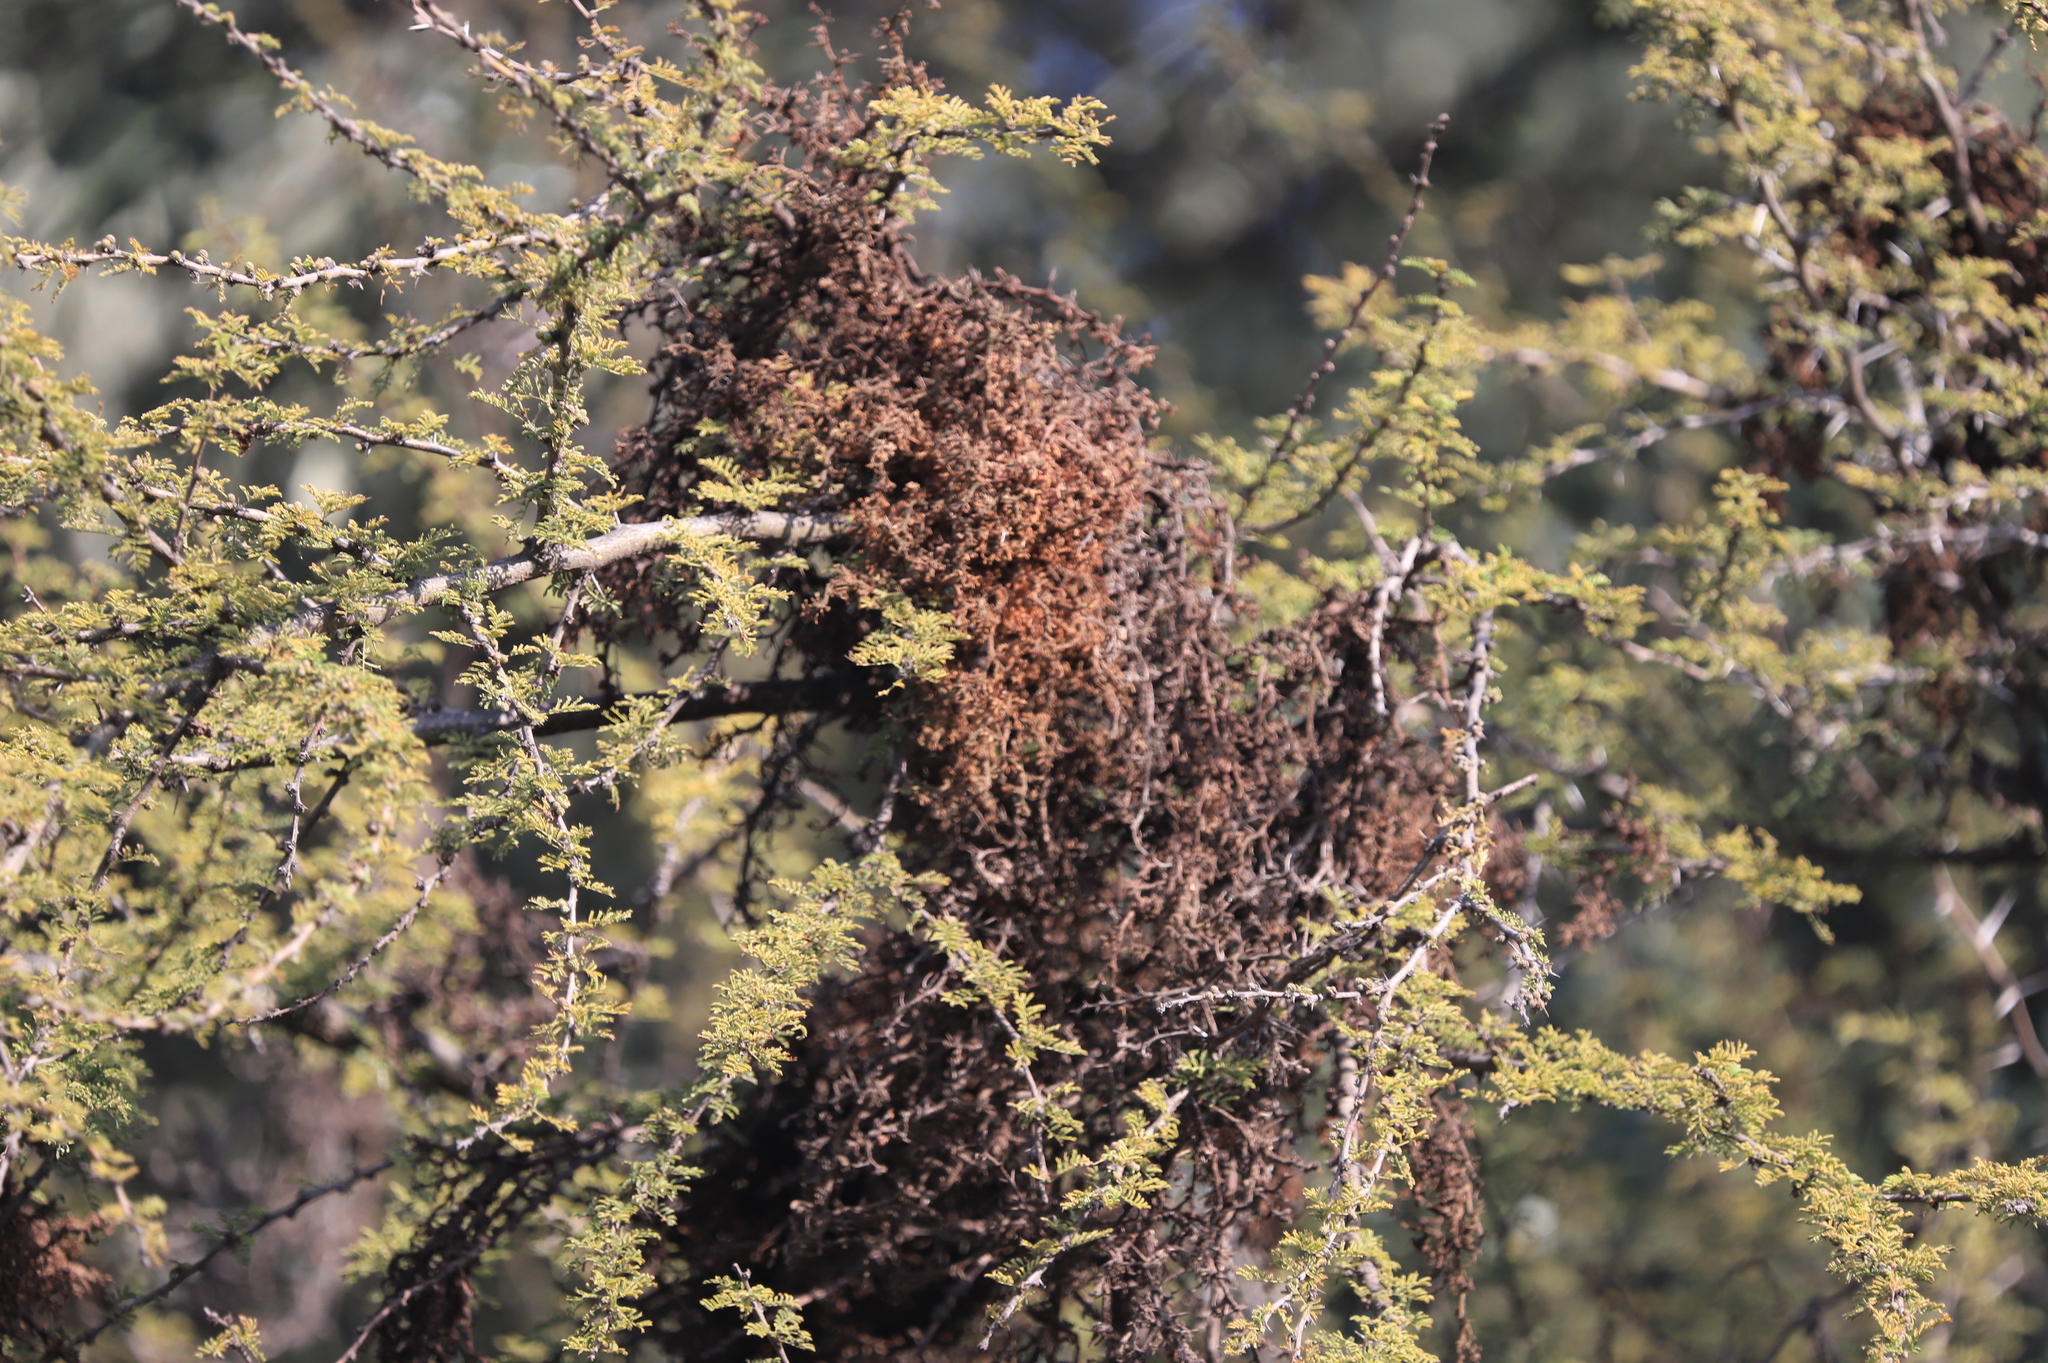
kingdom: Fungi
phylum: Basidiomycota
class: Pucciniomycetes
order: Pucciniales
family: Raveneliaceae
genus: Ravenelia
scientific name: Ravenelia hieronymi
